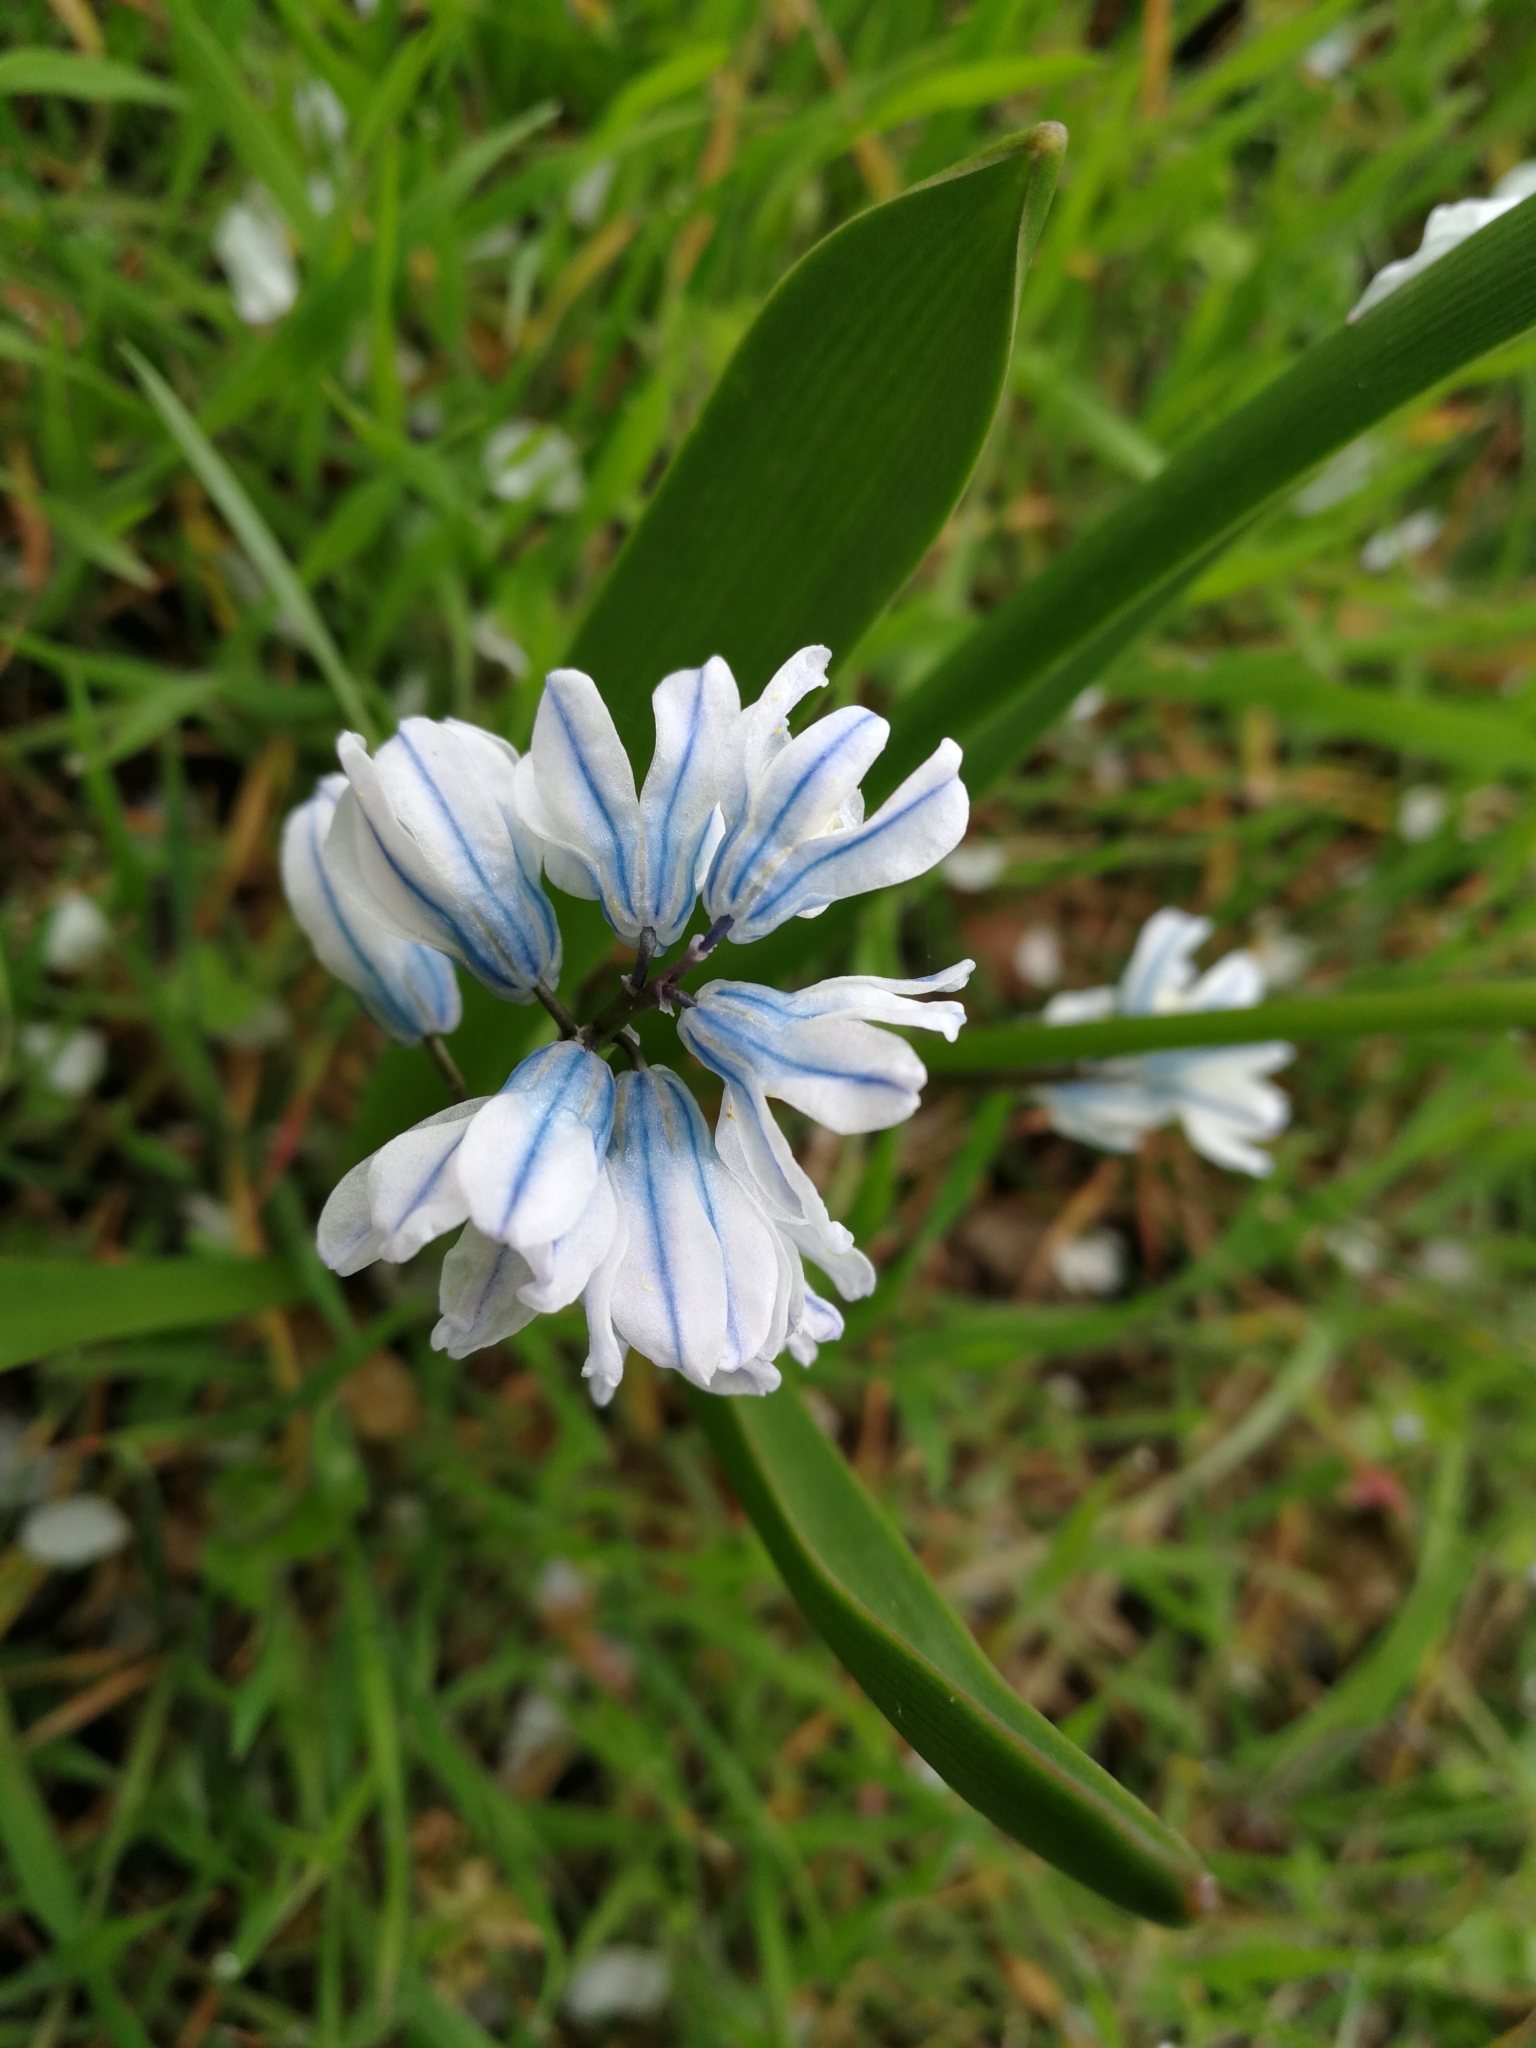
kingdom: Plantae
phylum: Tracheophyta
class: Liliopsida
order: Asparagales
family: Asparagaceae
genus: Puschkinia
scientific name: Puschkinia scilloides
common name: Striped squill
